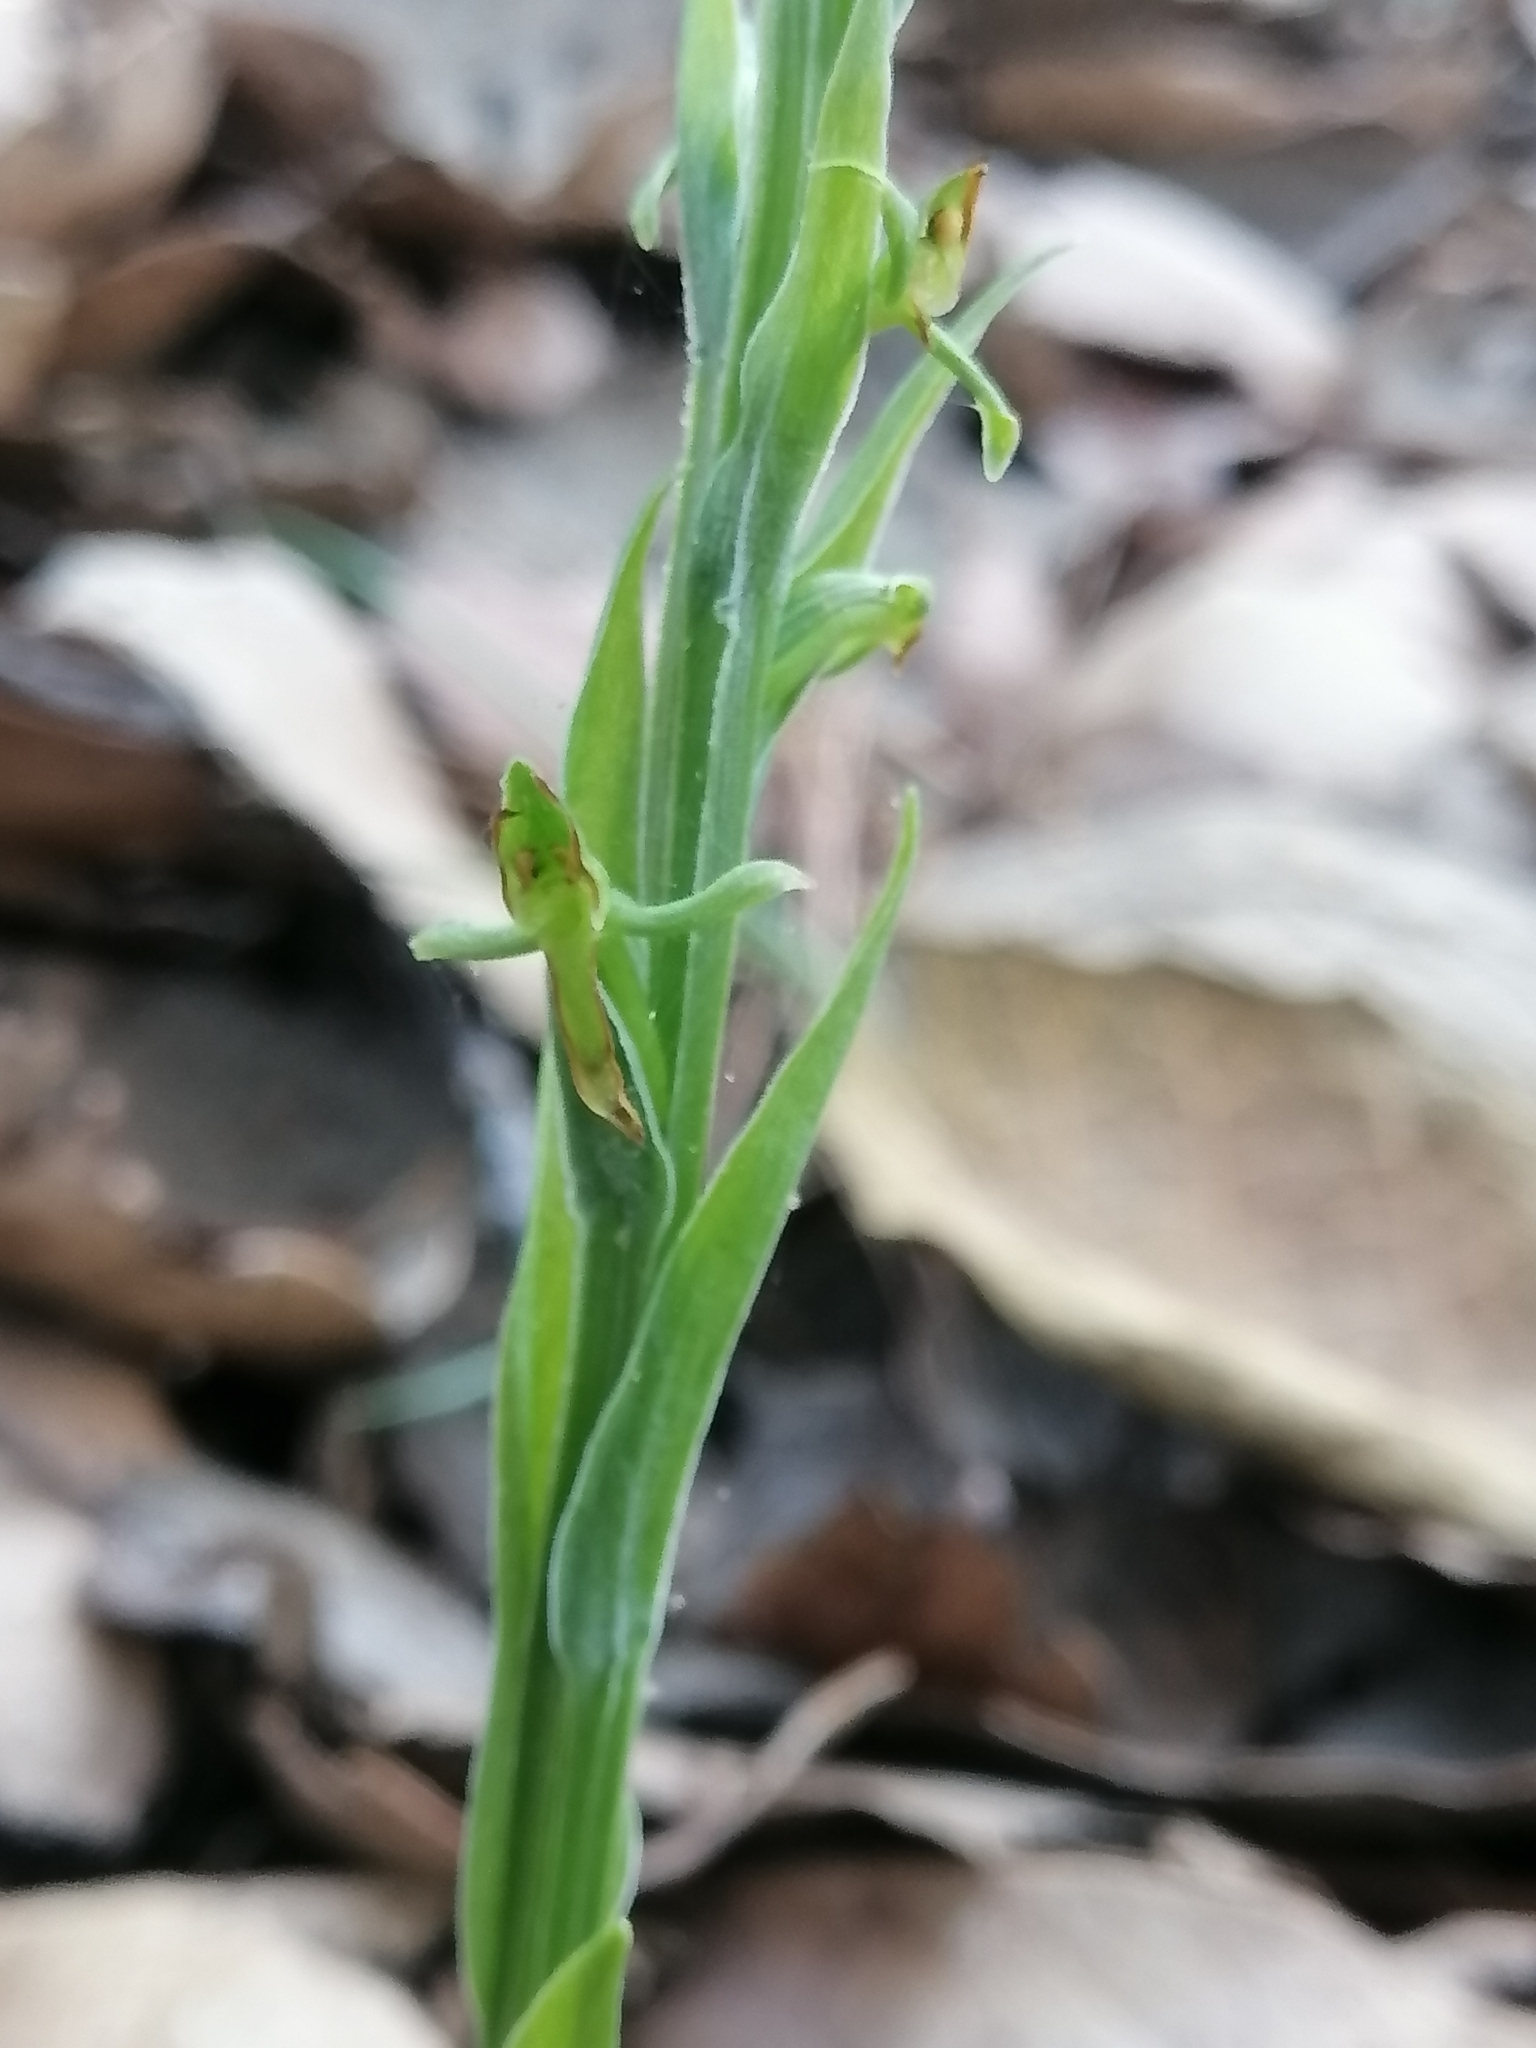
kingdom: Plantae
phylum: Tracheophyta
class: Liliopsida
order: Asparagales
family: Orchidaceae
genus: Platanthera
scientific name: Platanthera brevifolia
